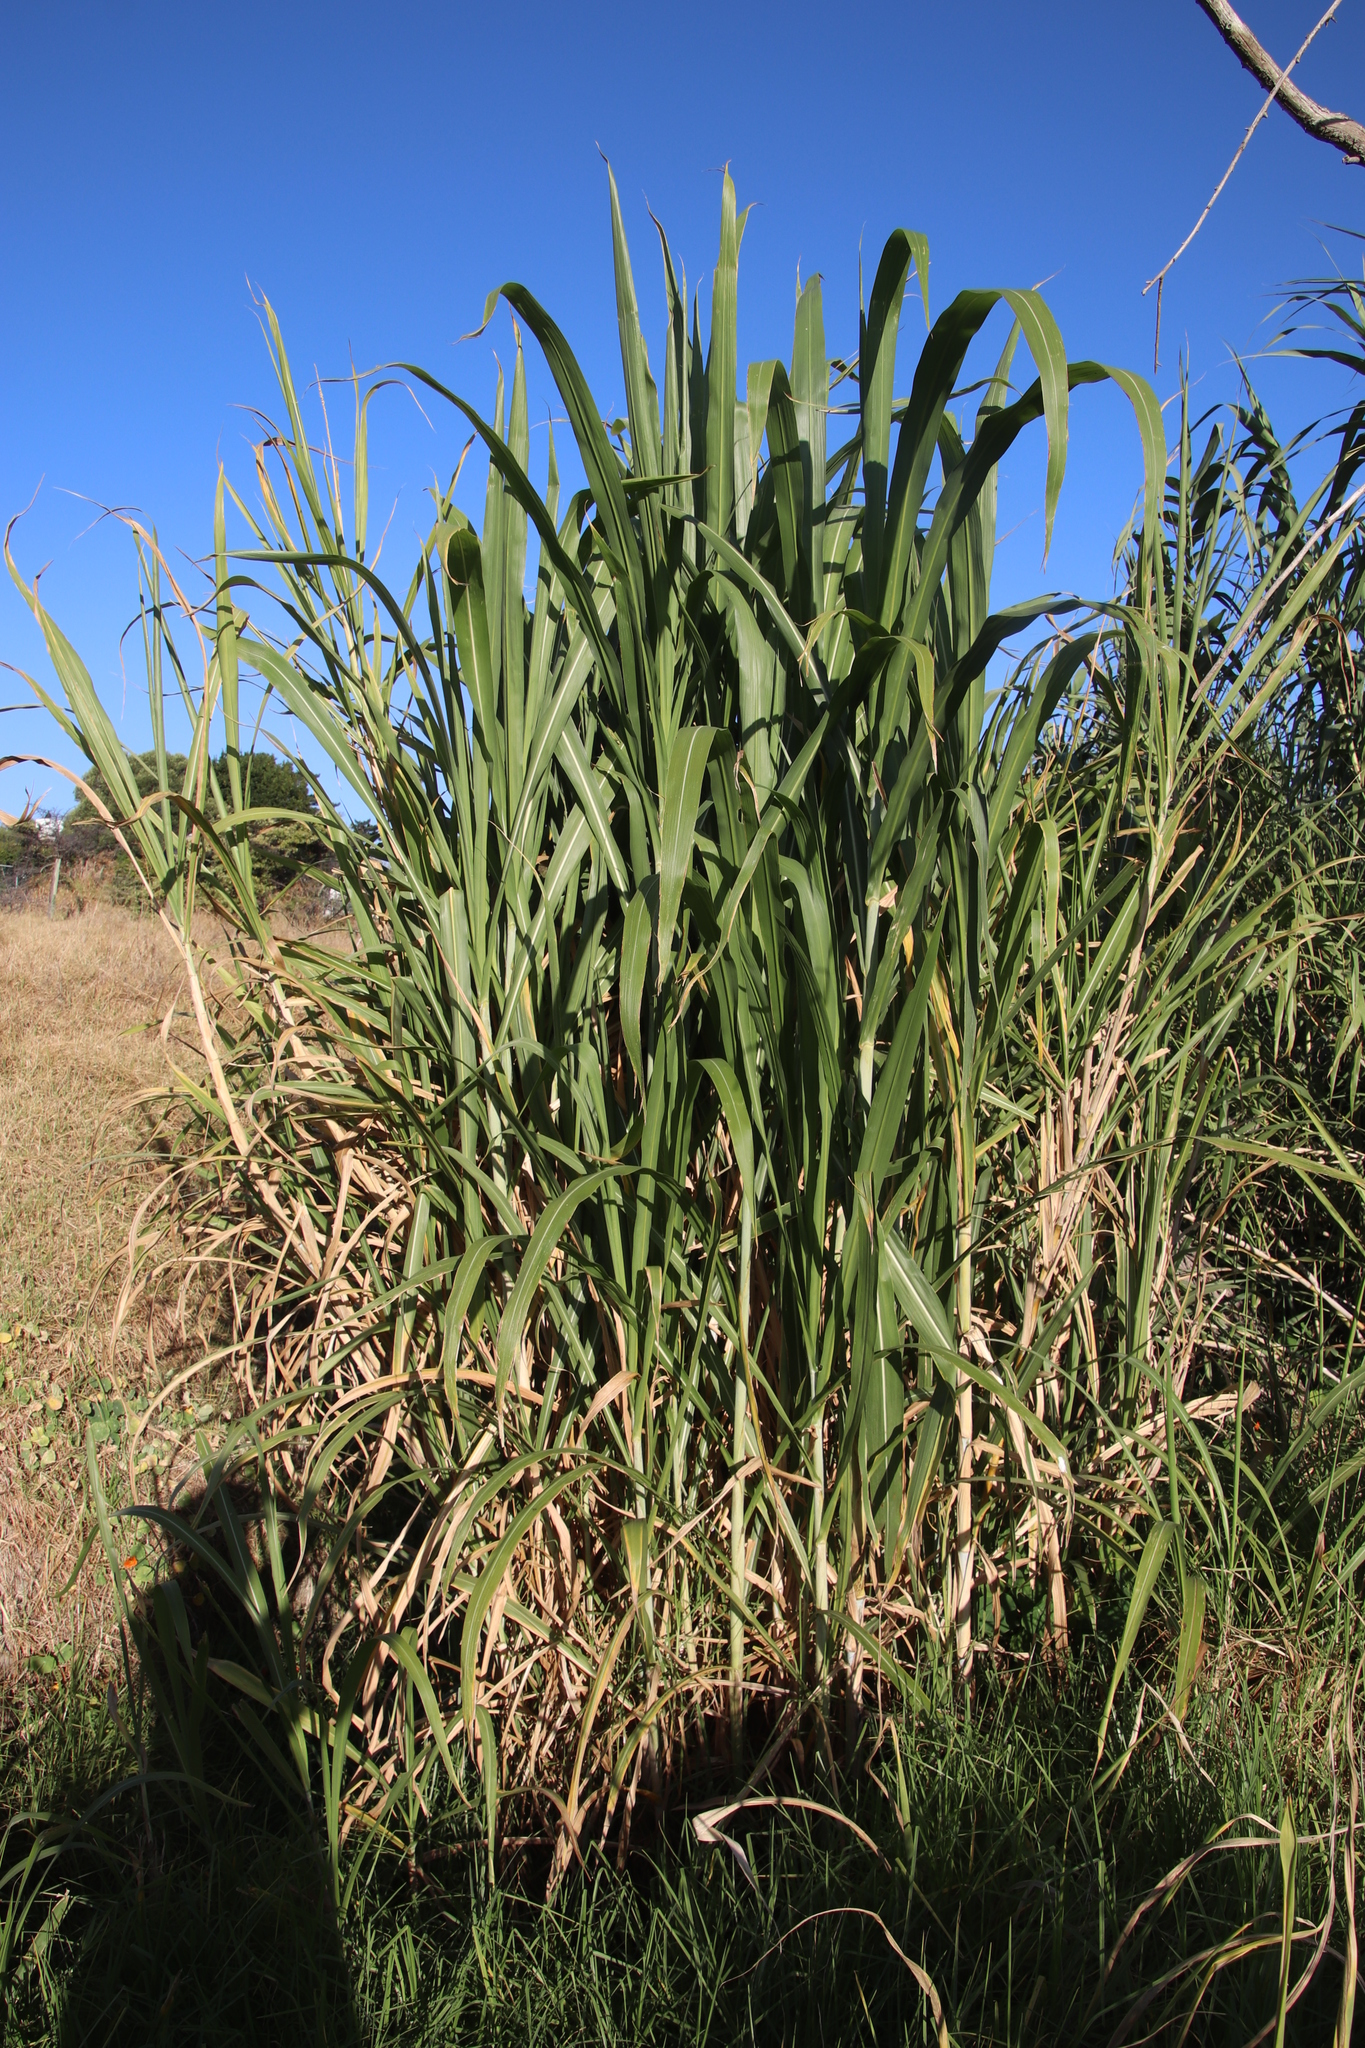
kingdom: Plantae
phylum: Tracheophyta
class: Liliopsida
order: Poales
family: Poaceae
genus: Cenchrus
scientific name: Cenchrus purpureus
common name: Elephant grass
